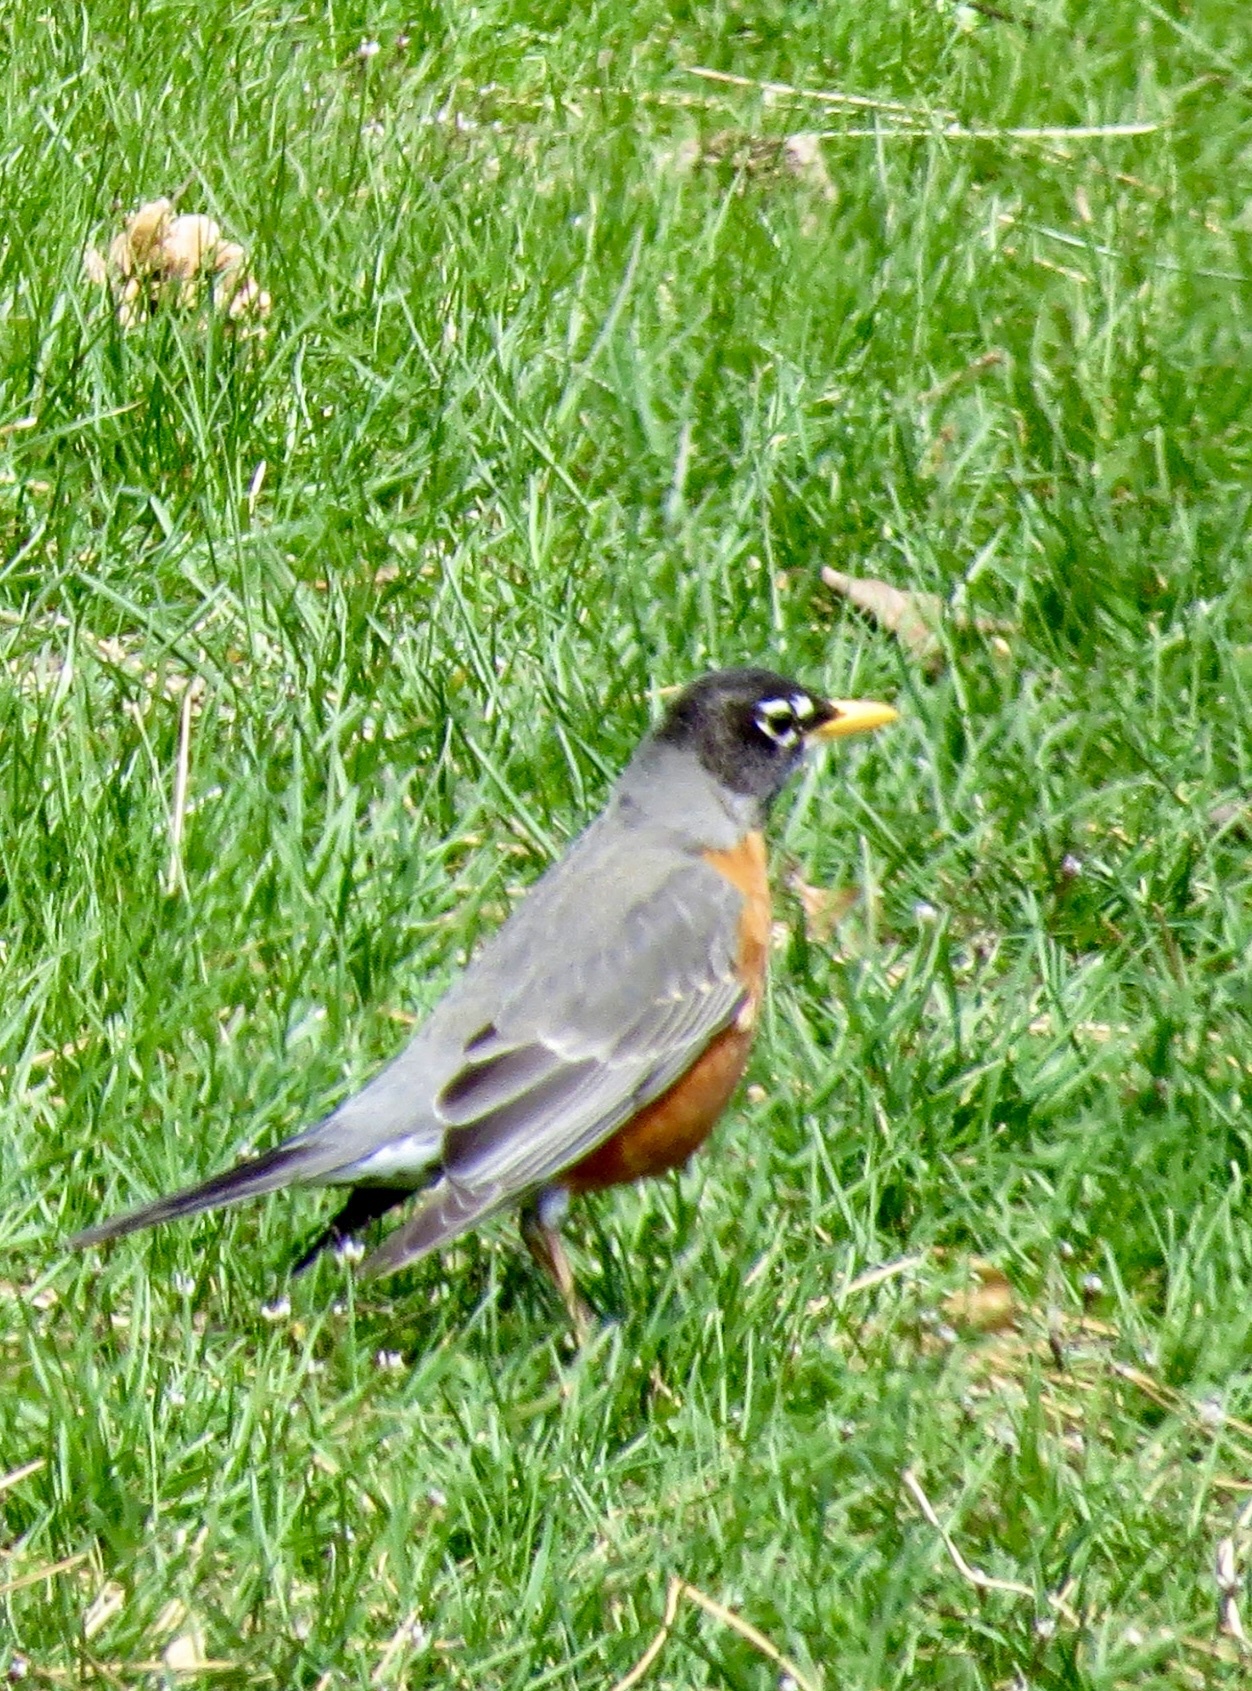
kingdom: Animalia
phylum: Chordata
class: Aves
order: Passeriformes
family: Turdidae
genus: Turdus
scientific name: Turdus migratorius
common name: American robin
